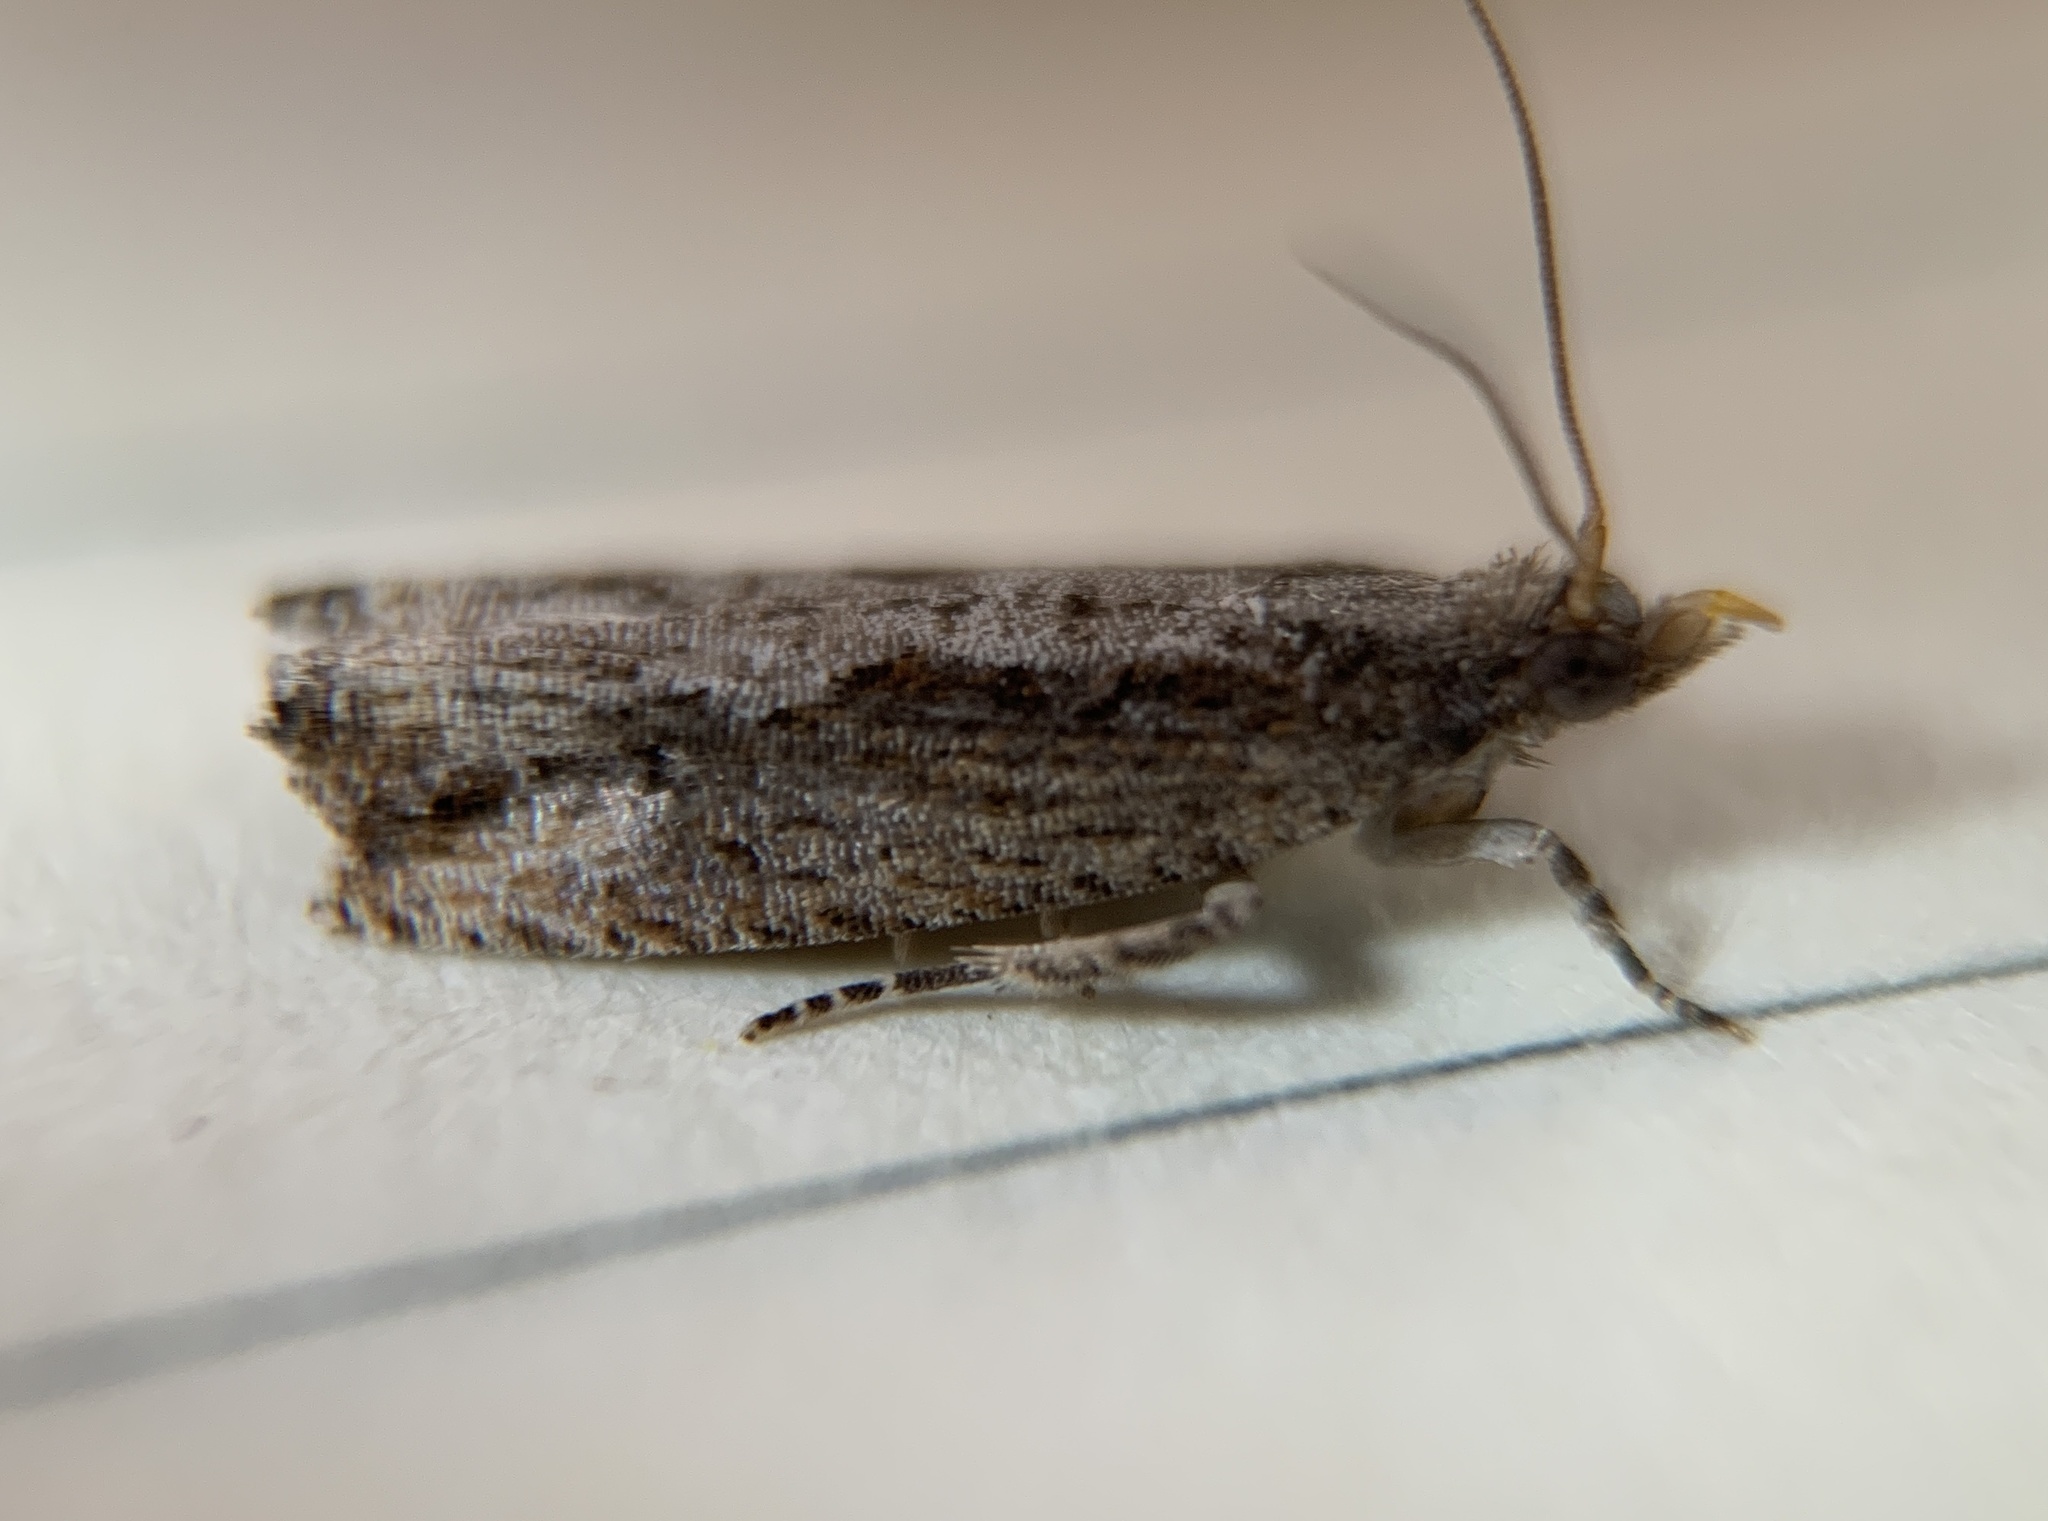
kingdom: Animalia
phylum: Arthropoda
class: Insecta
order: Lepidoptera
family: Tortricidae
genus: Strepsicrates
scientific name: Strepsicrates smithiana
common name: Bayberry leaftier moth
